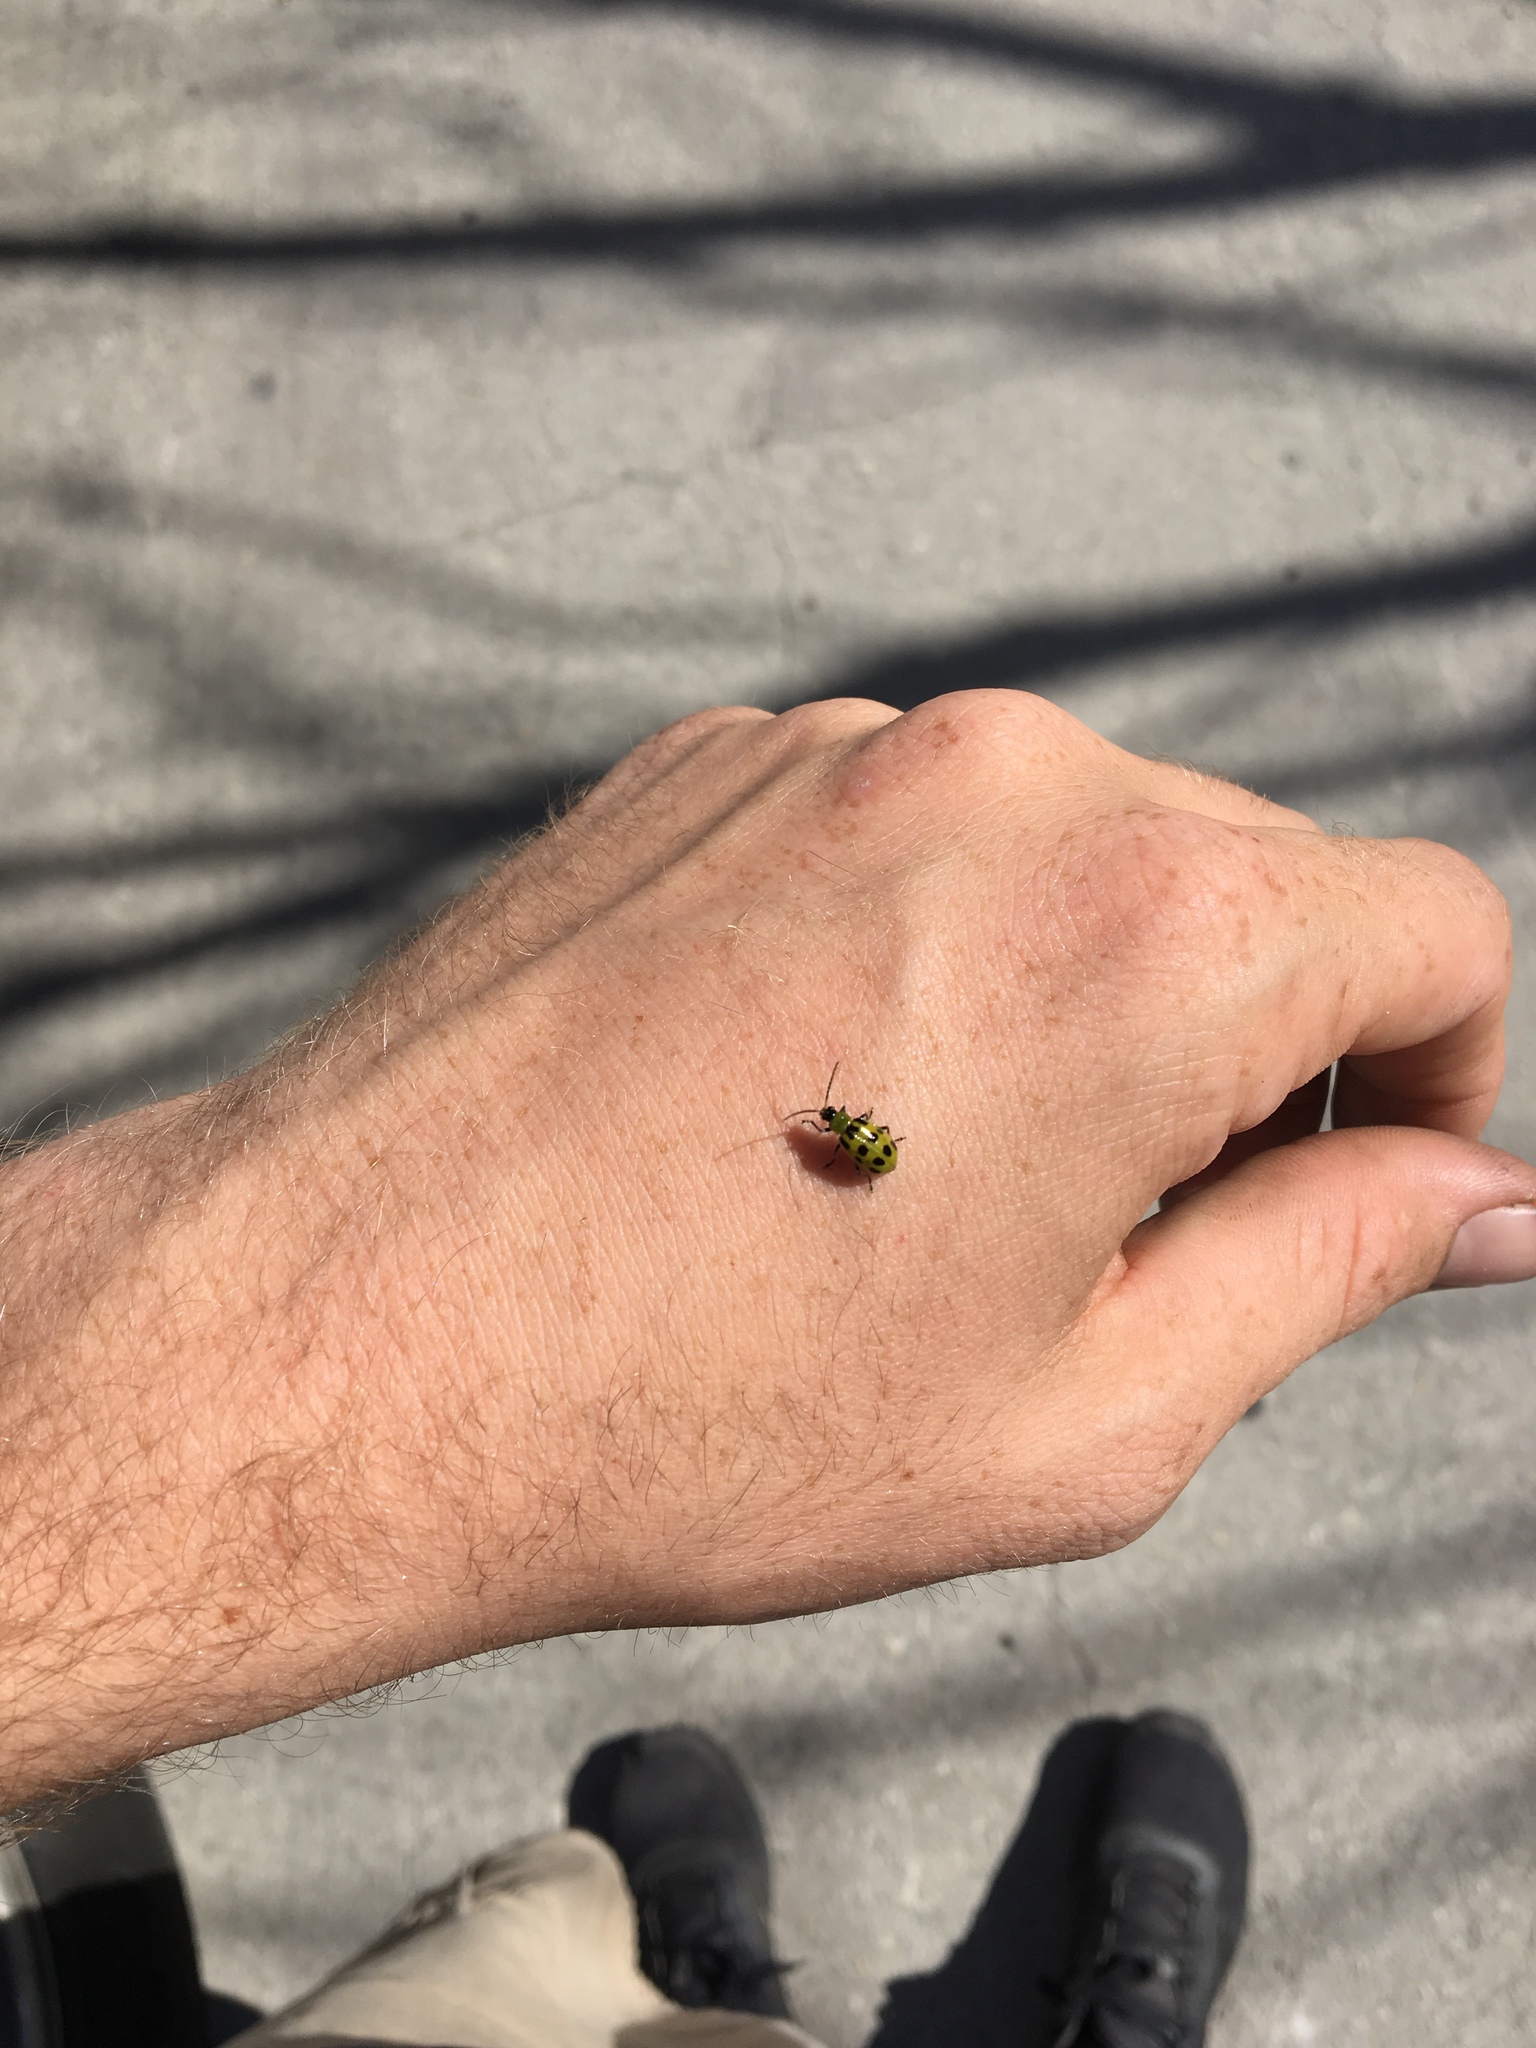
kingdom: Animalia
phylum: Arthropoda
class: Insecta
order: Coleoptera
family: Chrysomelidae
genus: Diabrotica
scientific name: Diabrotica undecimpunctata
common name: Spotted cucumber beetle
